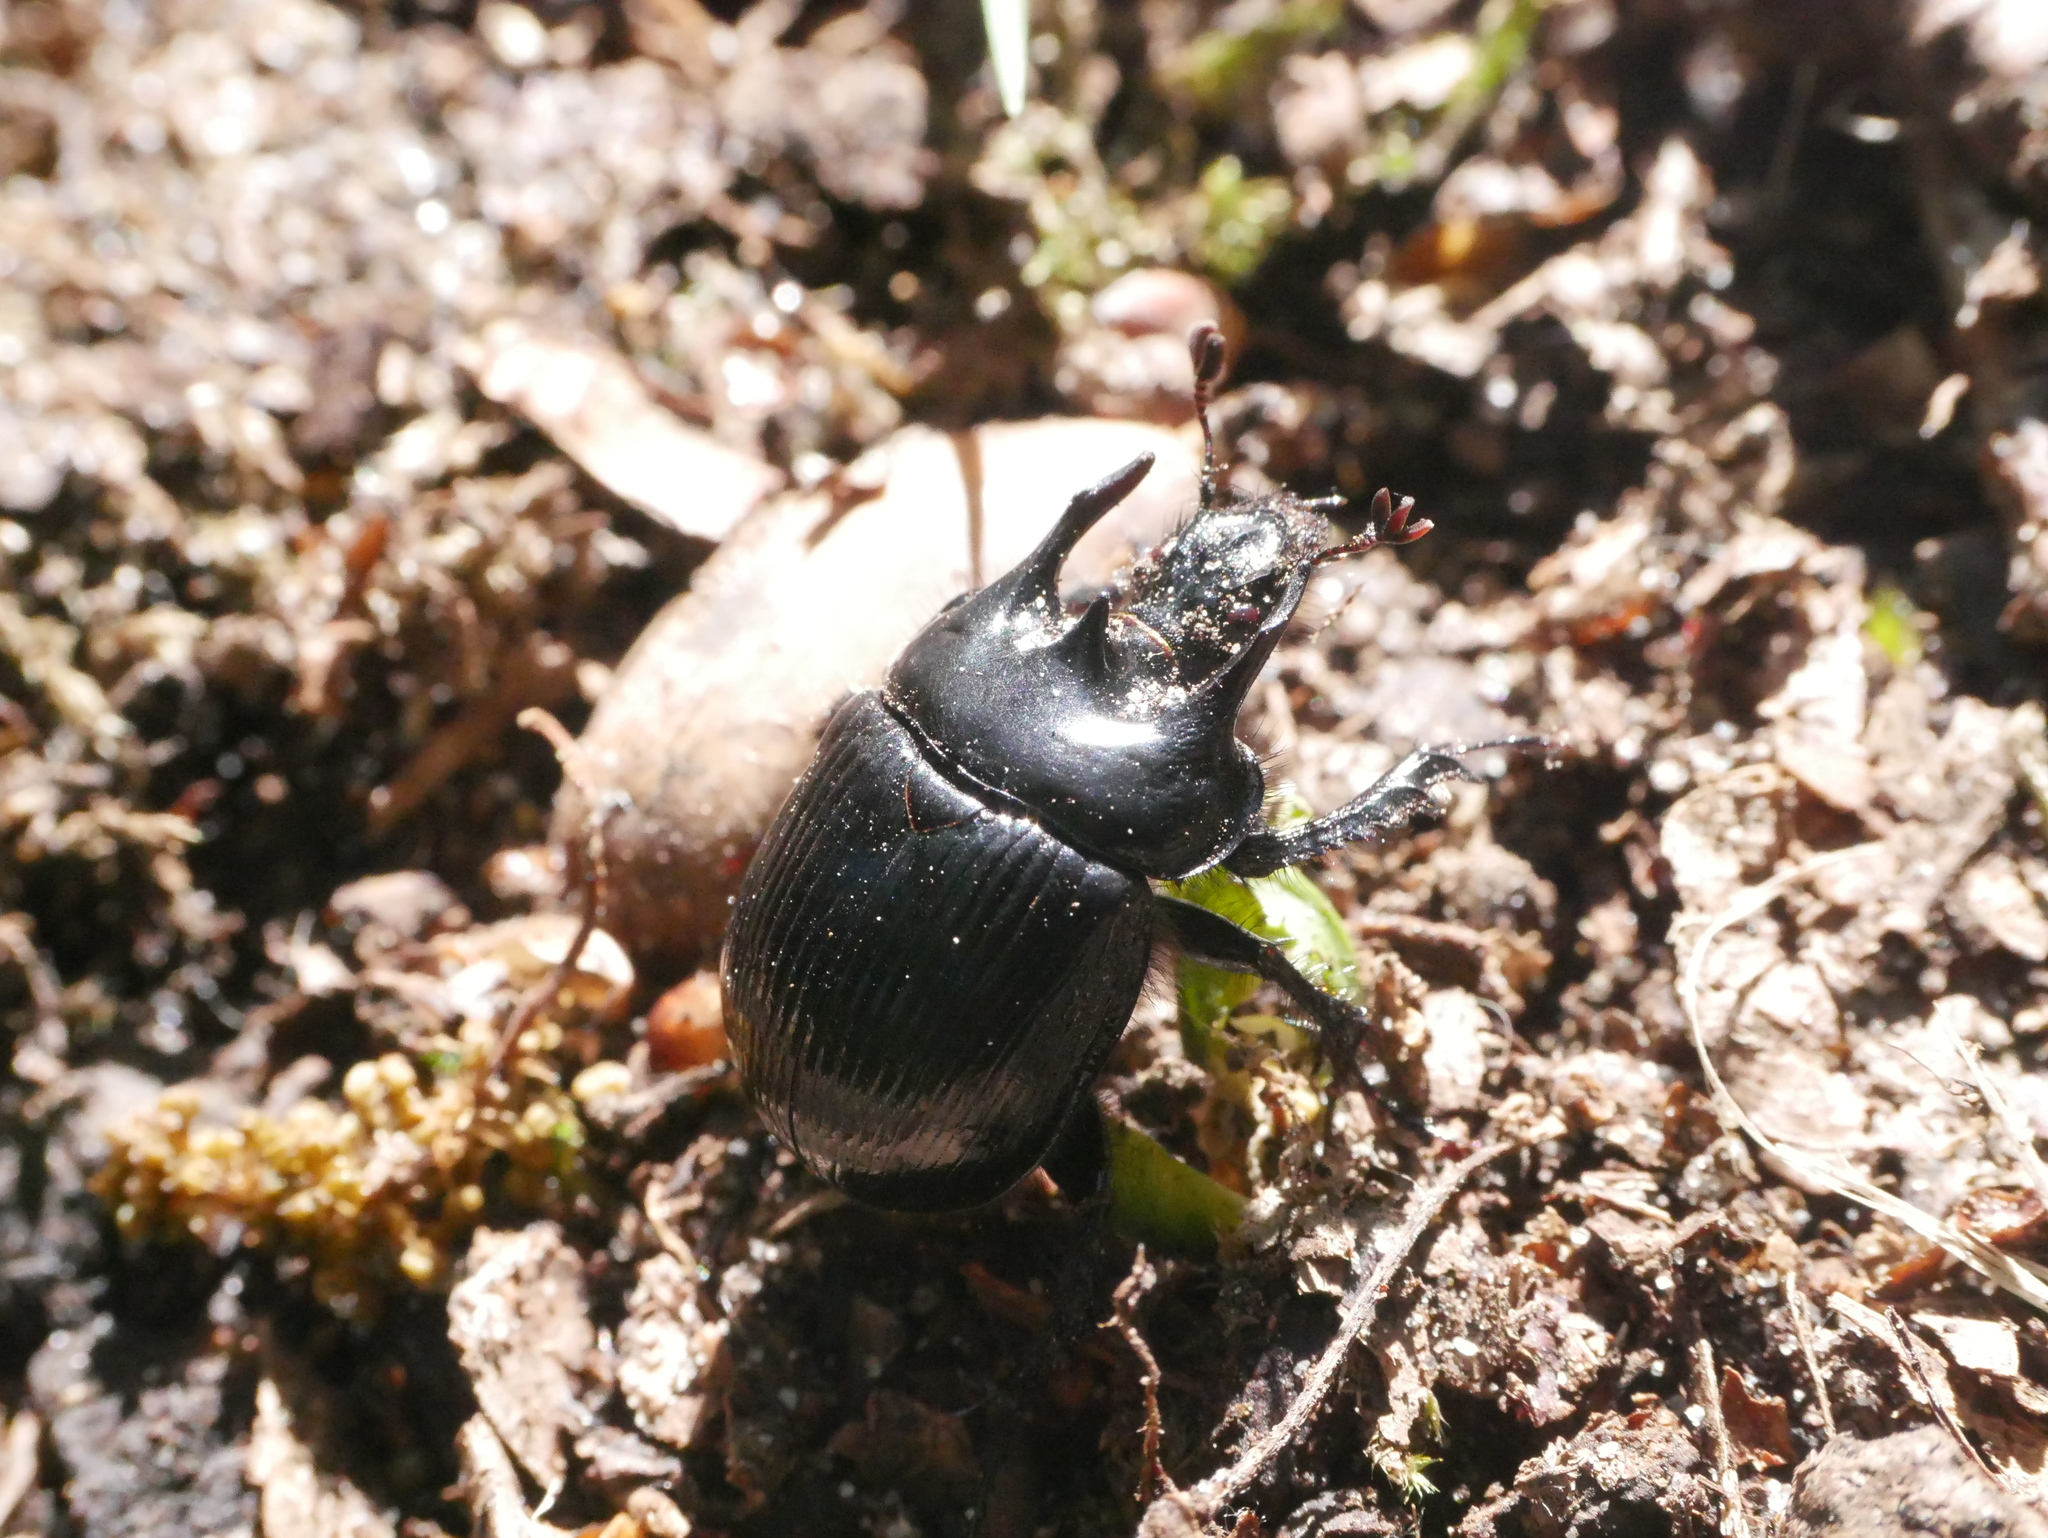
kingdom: Animalia
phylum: Arthropoda
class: Insecta
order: Coleoptera
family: Geotrupidae
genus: Typhaeus
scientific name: Typhaeus typhoeus
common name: Minotaur beetle
